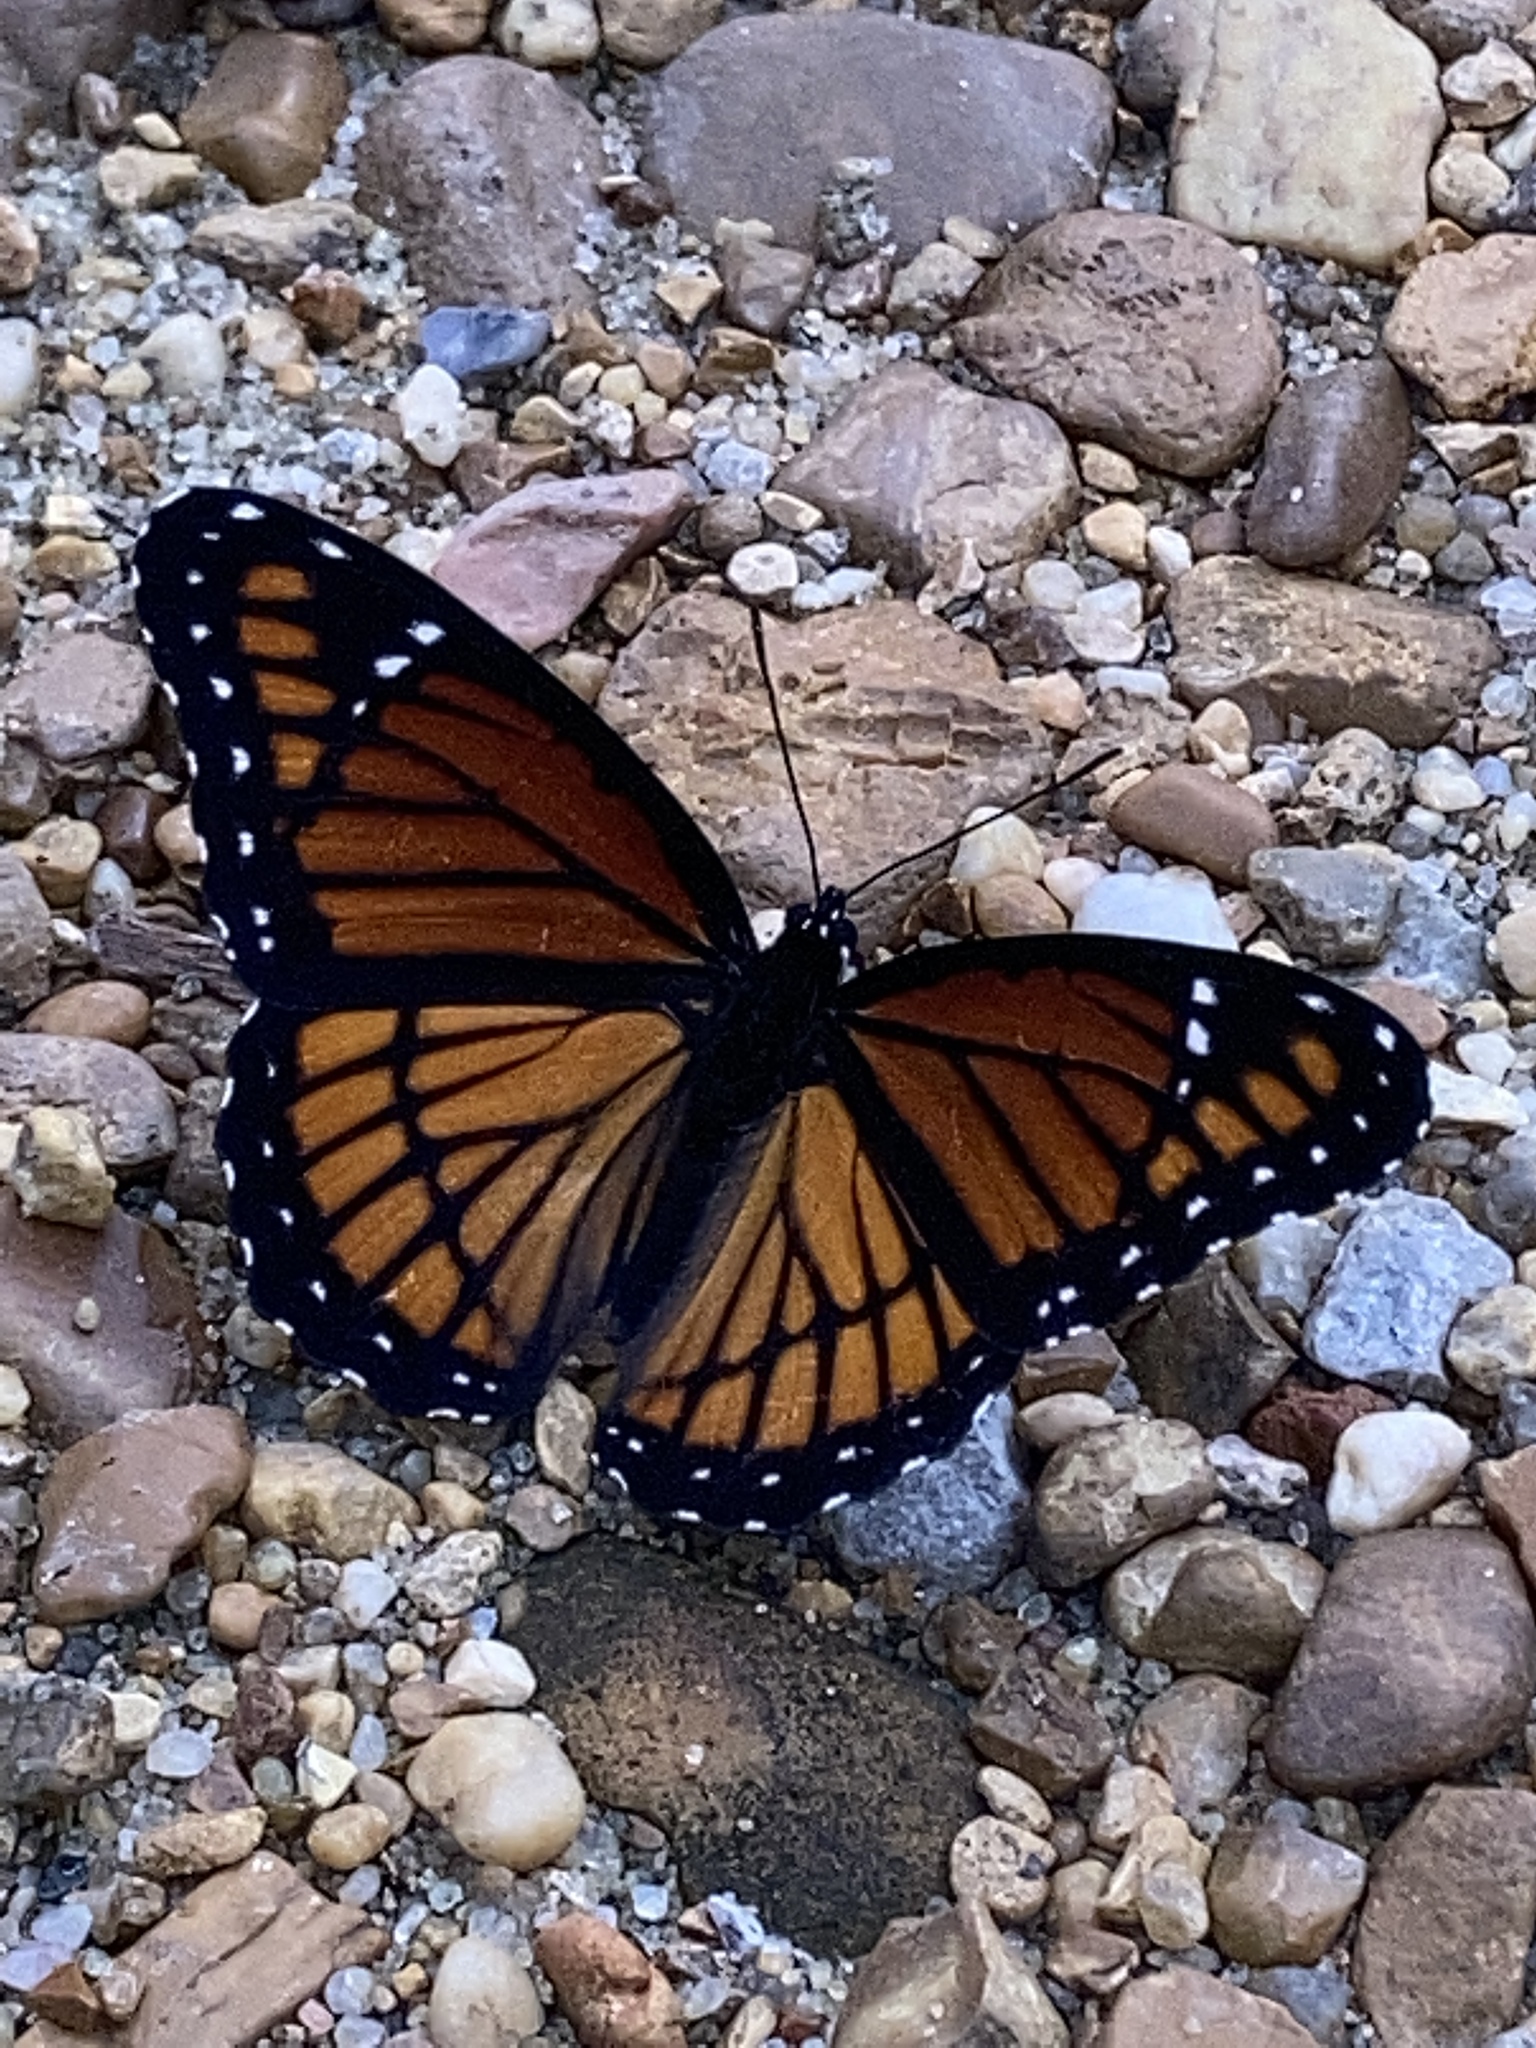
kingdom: Animalia
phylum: Arthropoda
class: Insecta
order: Lepidoptera
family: Nymphalidae
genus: Limenitis
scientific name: Limenitis archippus
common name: Viceroy
